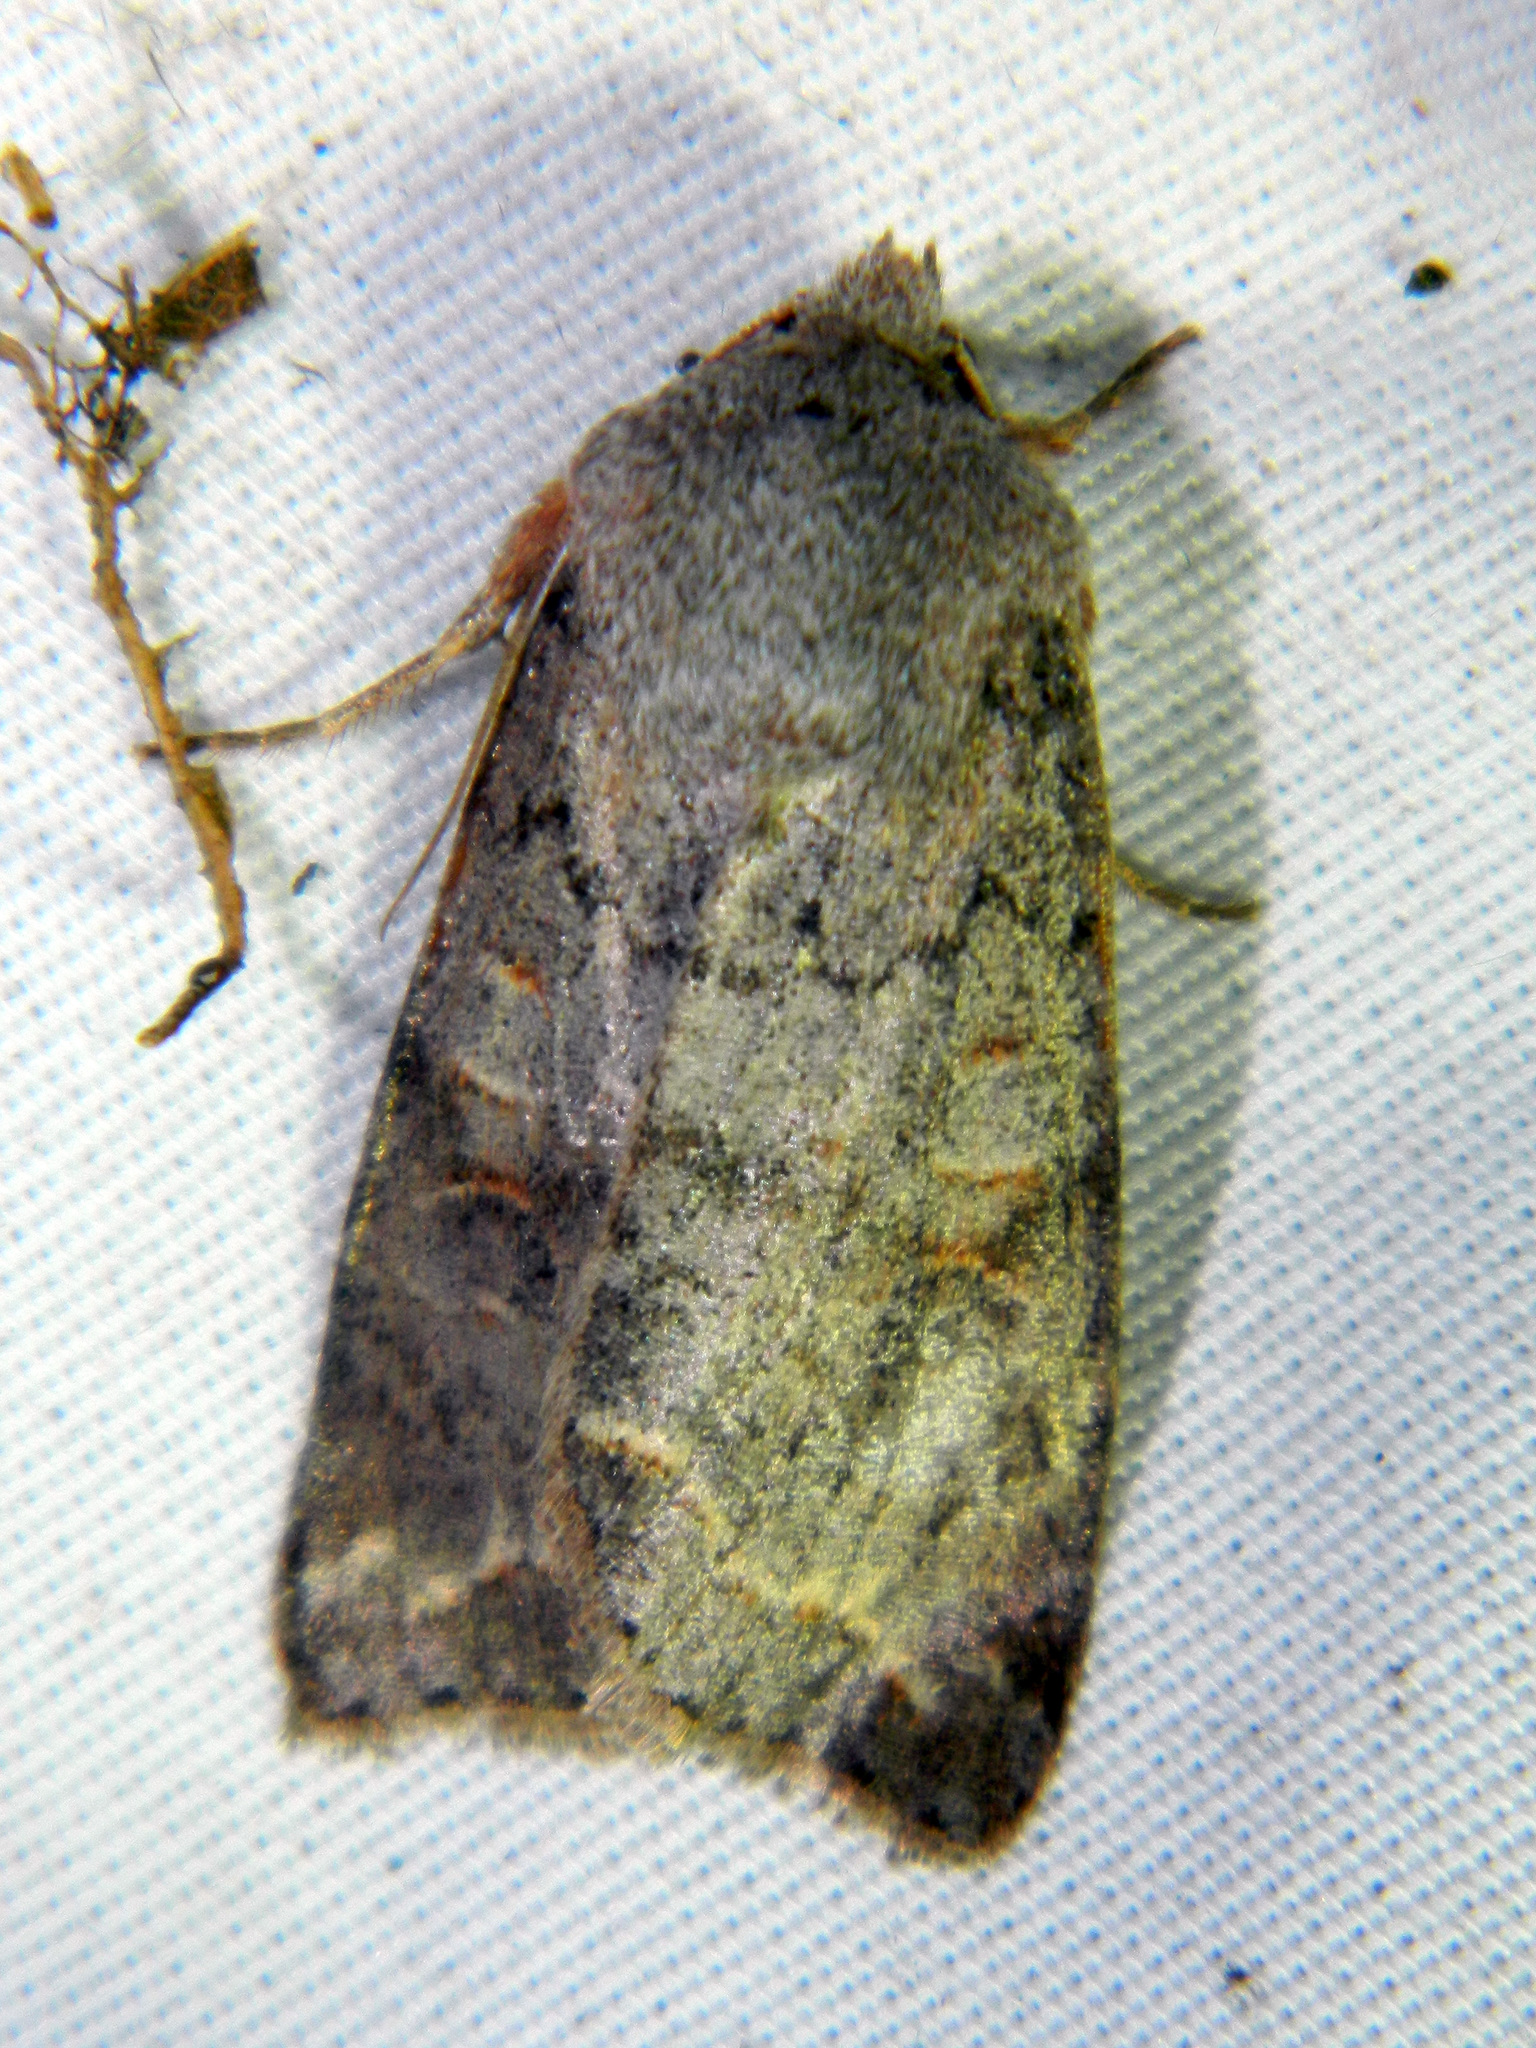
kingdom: Animalia
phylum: Arthropoda
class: Insecta
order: Lepidoptera
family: Noctuidae
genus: Orthosia
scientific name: Orthosia revicta
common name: Rusty whitesided caterpillar
